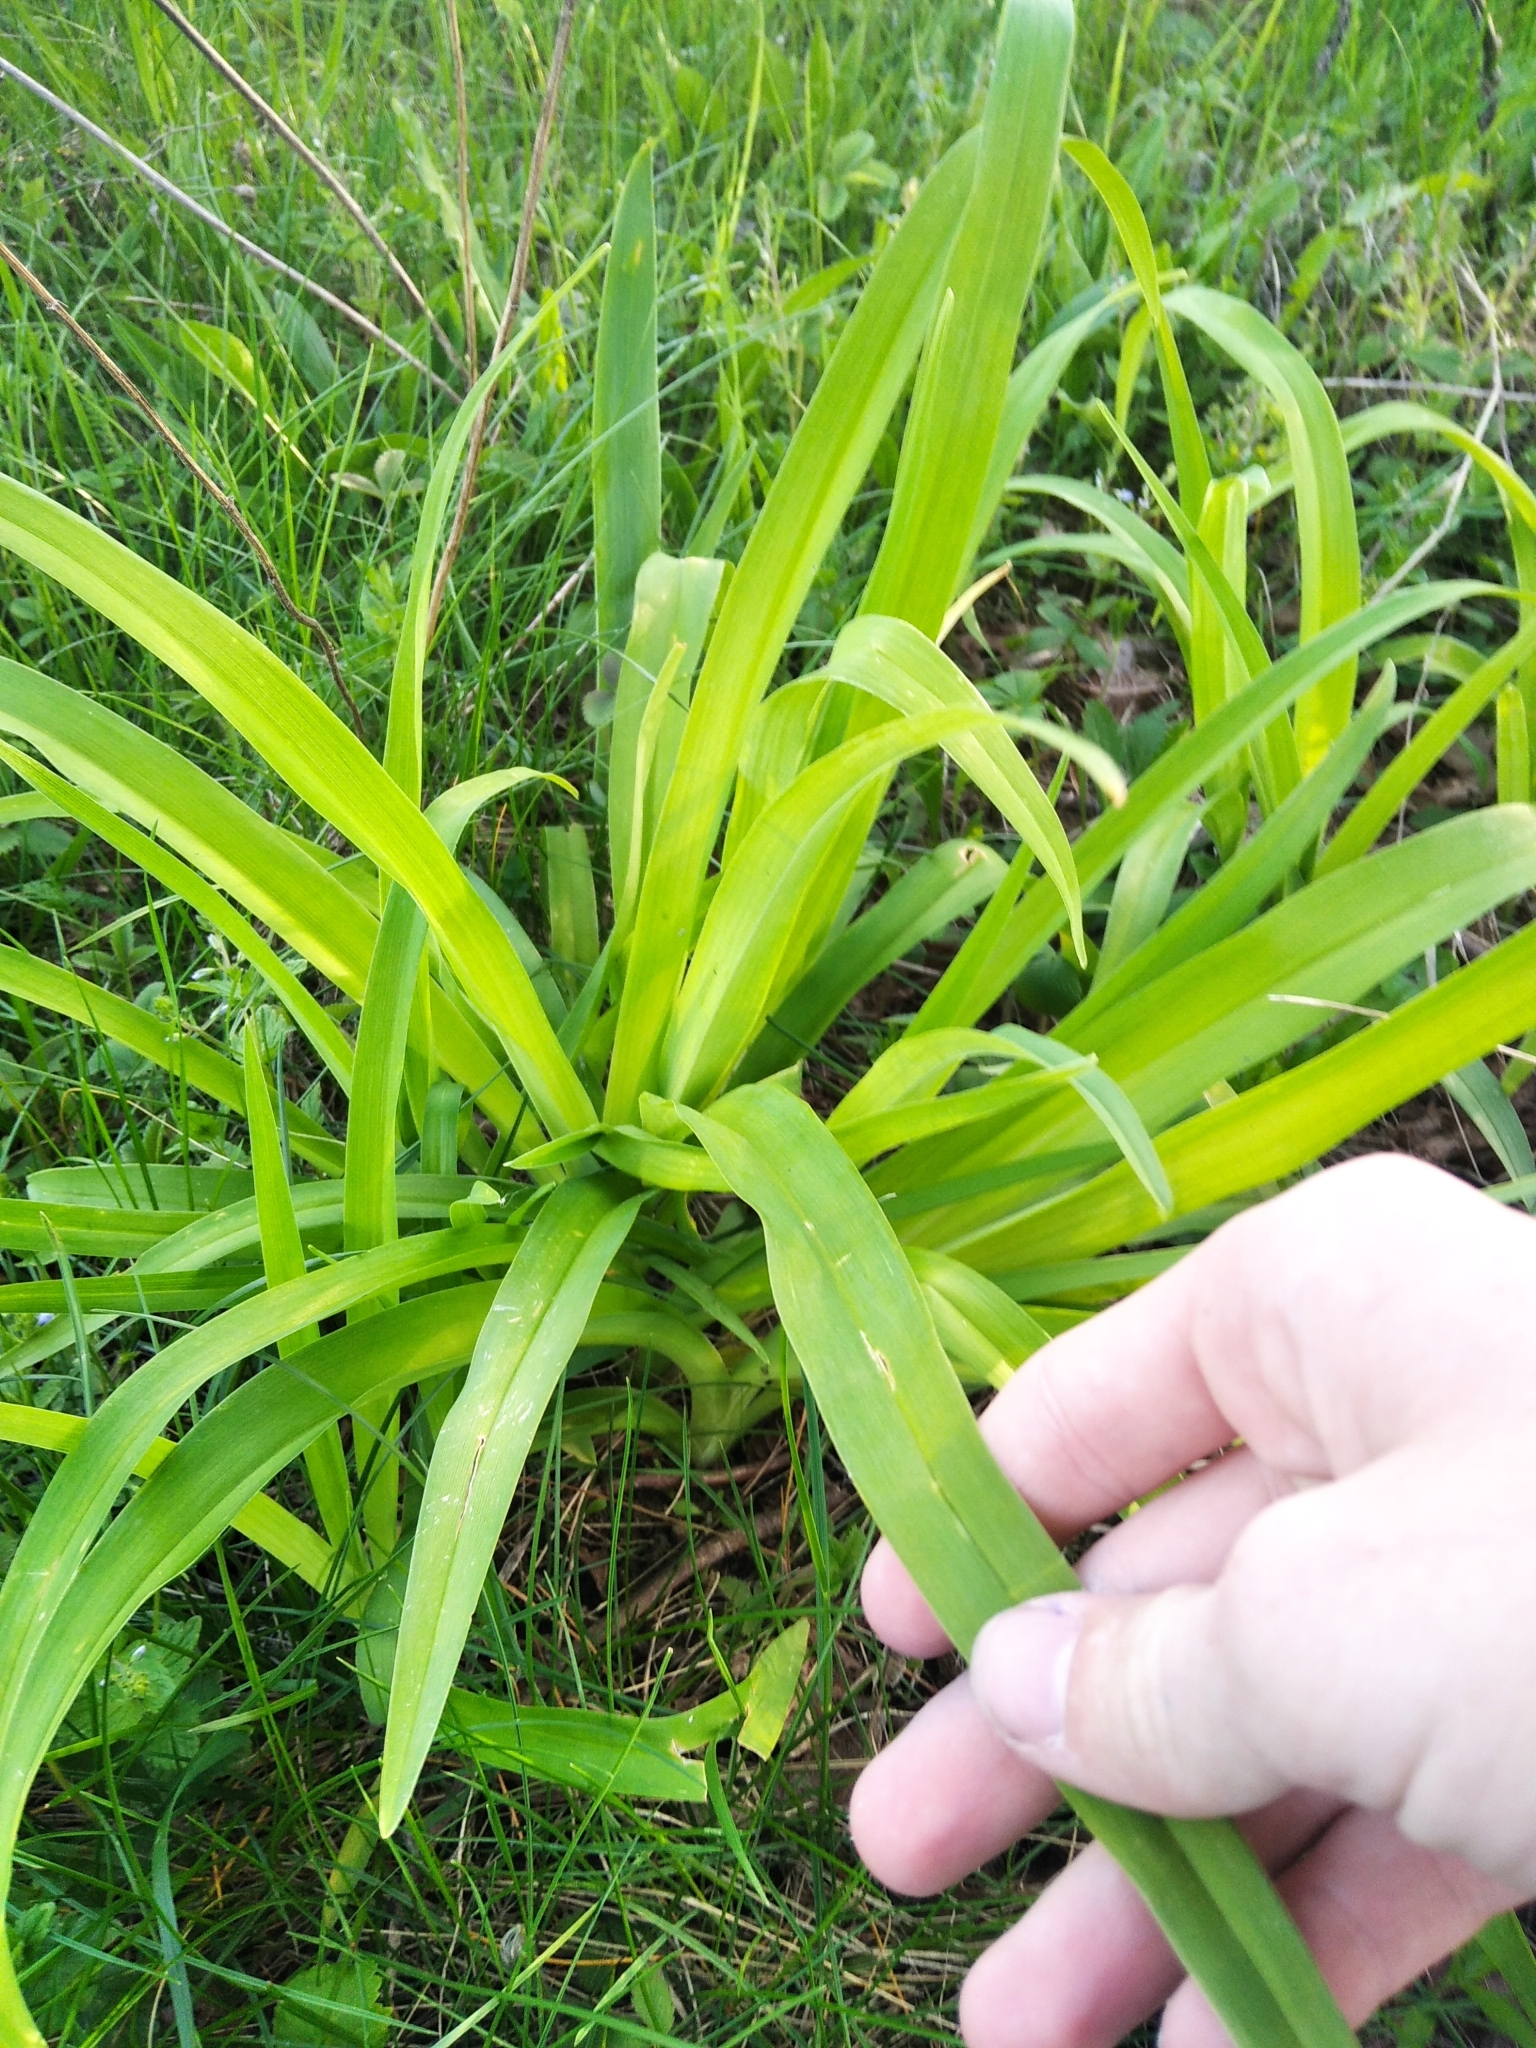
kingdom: Plantae
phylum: Tracheophyta
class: Liliopsida
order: Asparagales
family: Asphodelaceae
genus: Hemerocallis
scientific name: Hemerocallis fulva
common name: Orange day-lily
